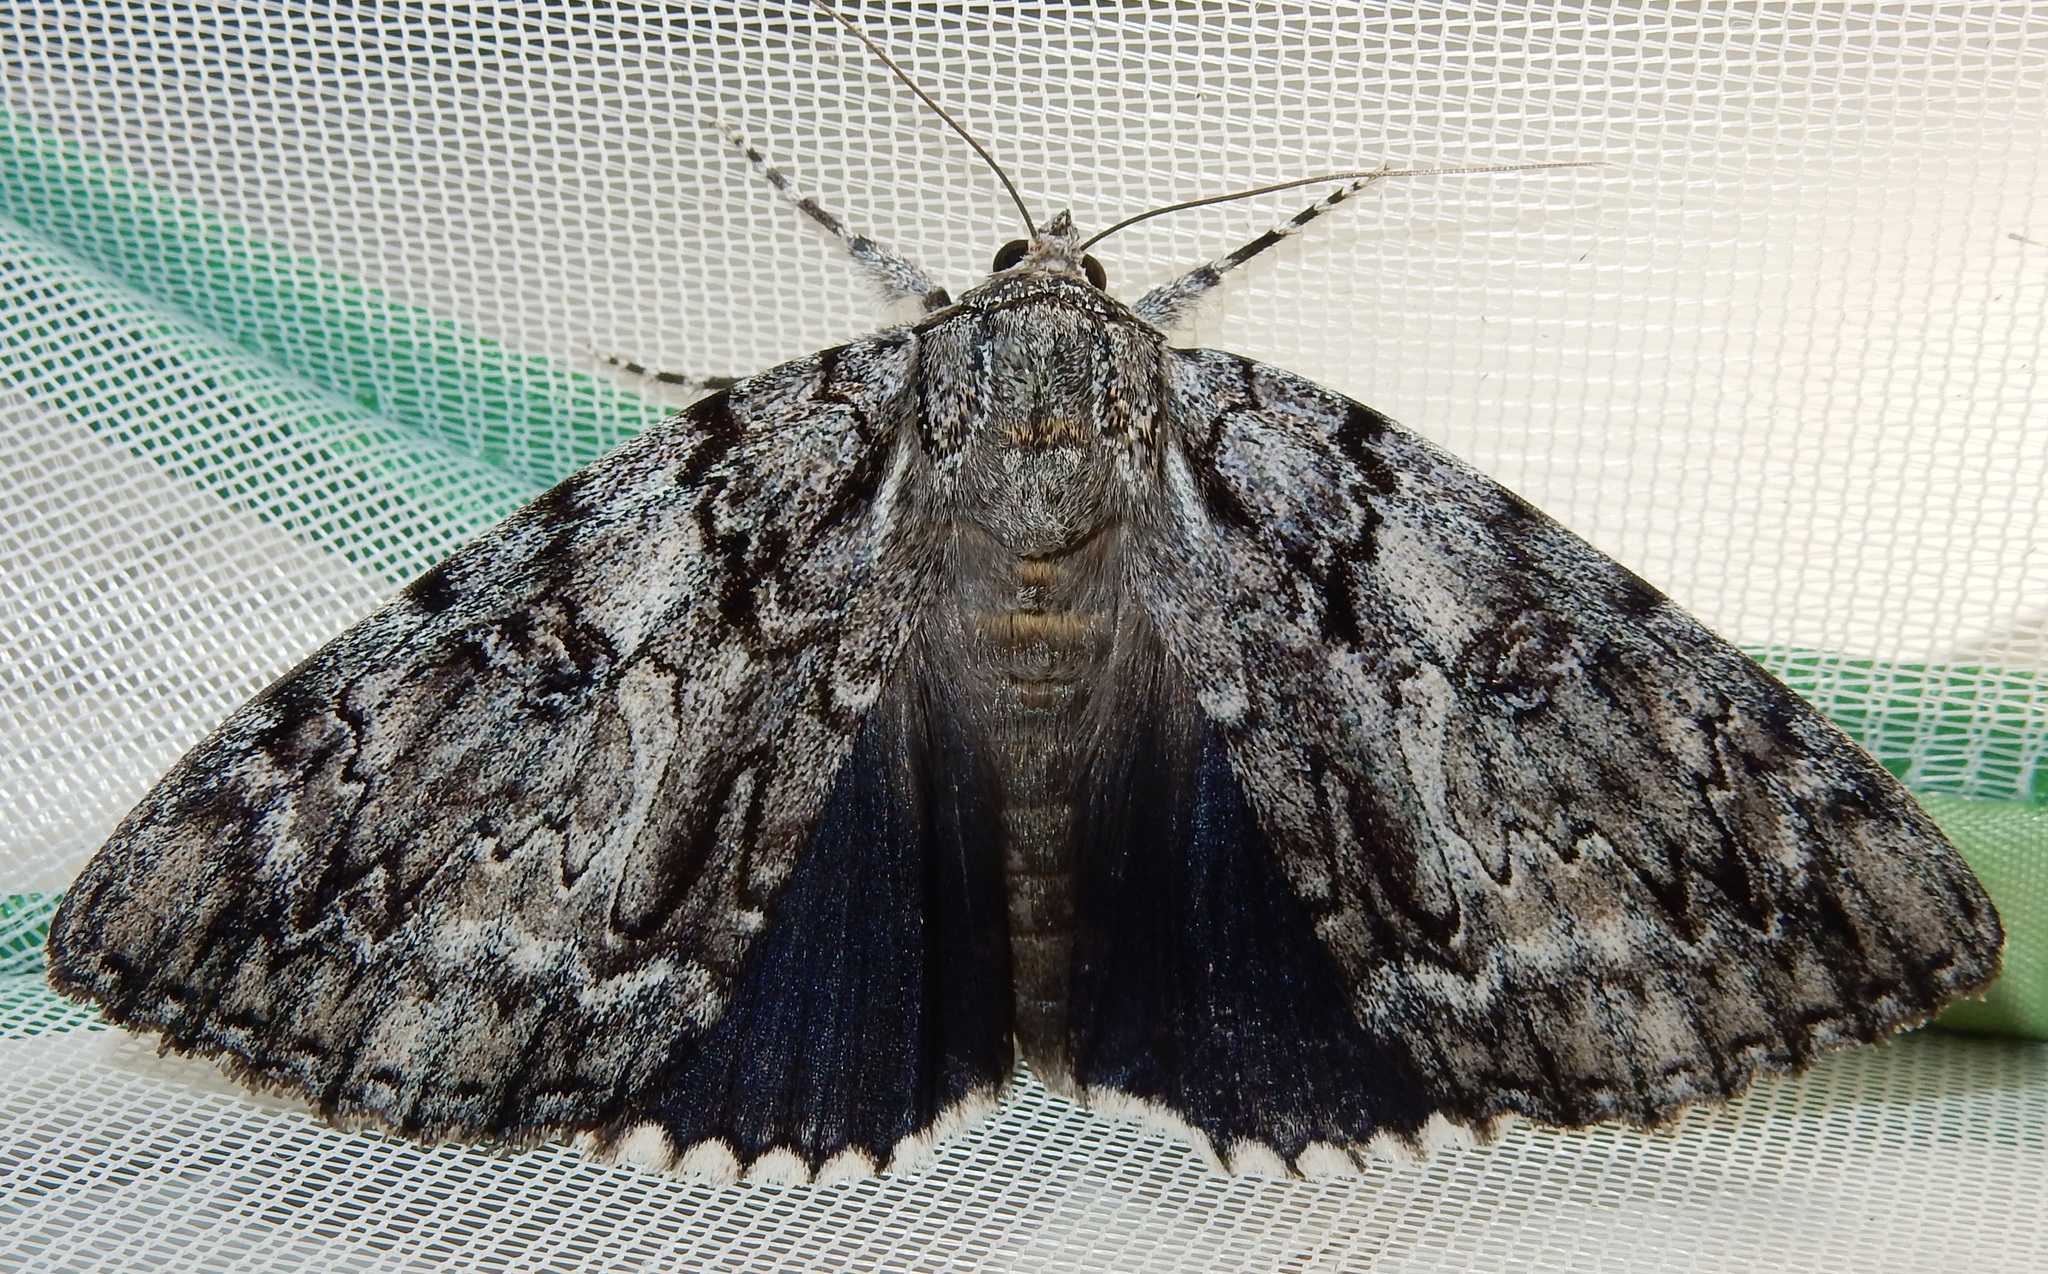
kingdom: Animalia
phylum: Arthropoda
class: Insecta
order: Lepidoptera
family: Erebidae
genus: Catocala
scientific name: Catocala ulalume
